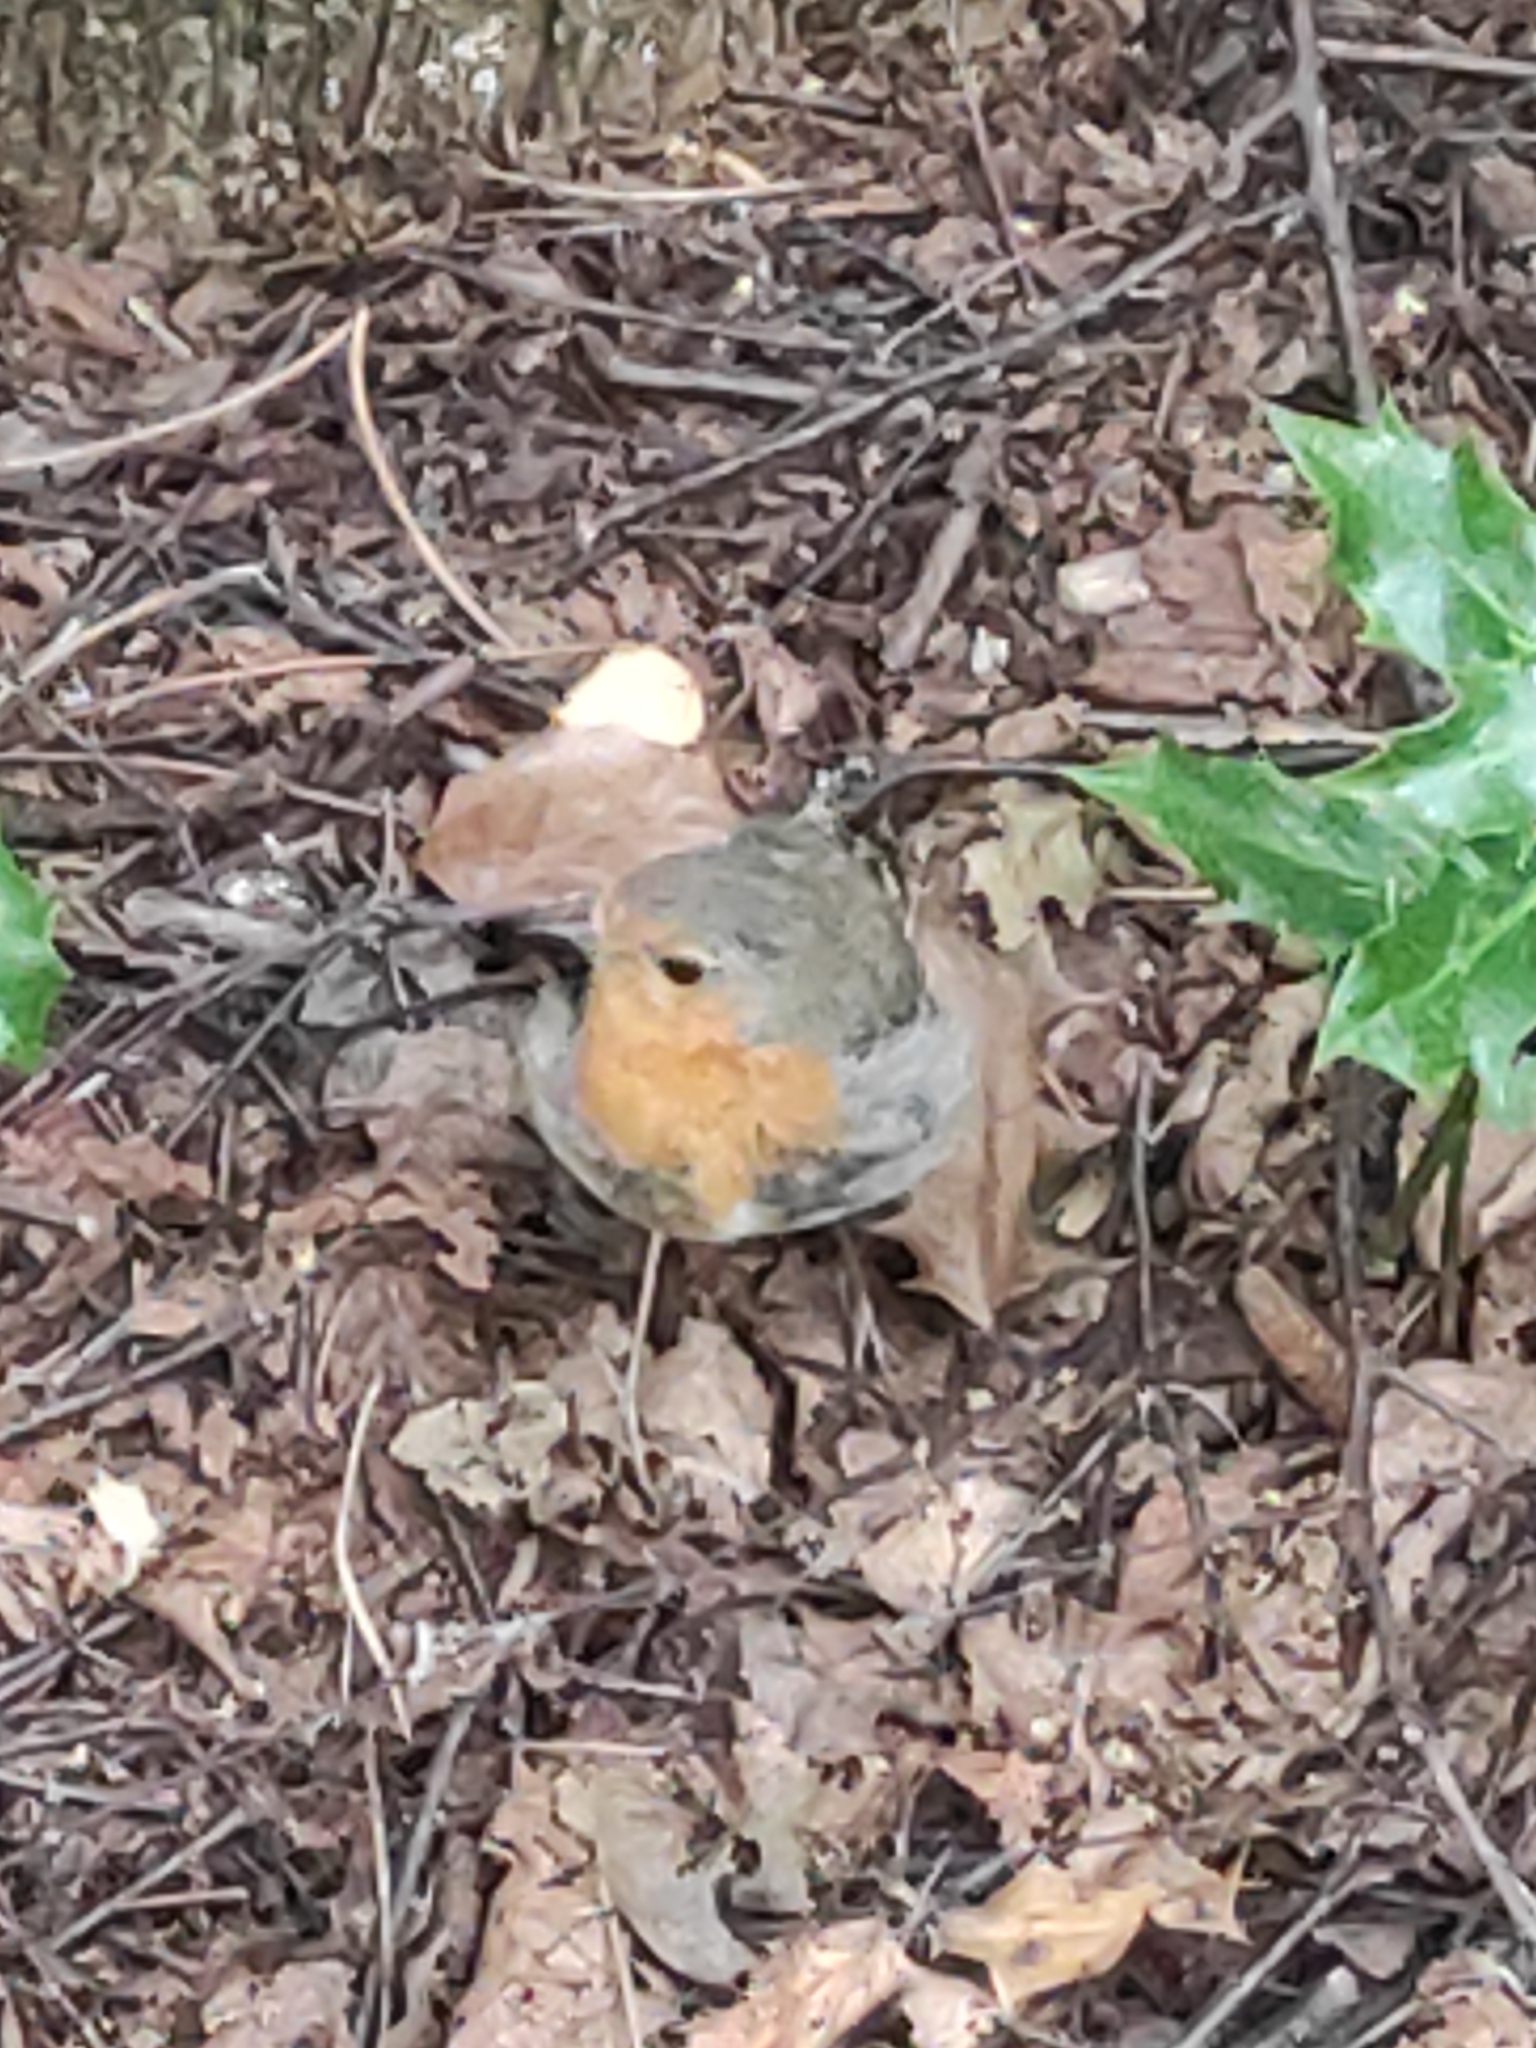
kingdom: Animalia
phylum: Chordata
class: Aves
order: Passeriformes
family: Muscicapidae
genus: Erithacus
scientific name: Erithacus rubecula
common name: European robin
